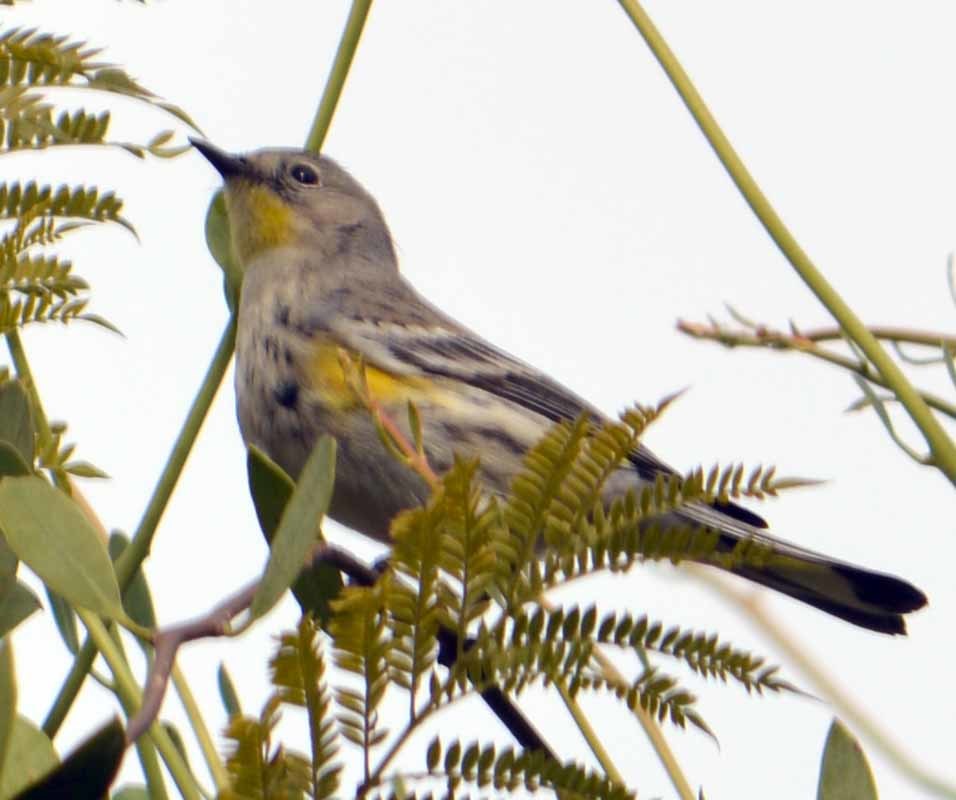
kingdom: Animalia
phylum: Chordata
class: Aves
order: Passeriformes
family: Parulidae
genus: Setophaga
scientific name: Setophaga coronata
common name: Myrtle warbler
